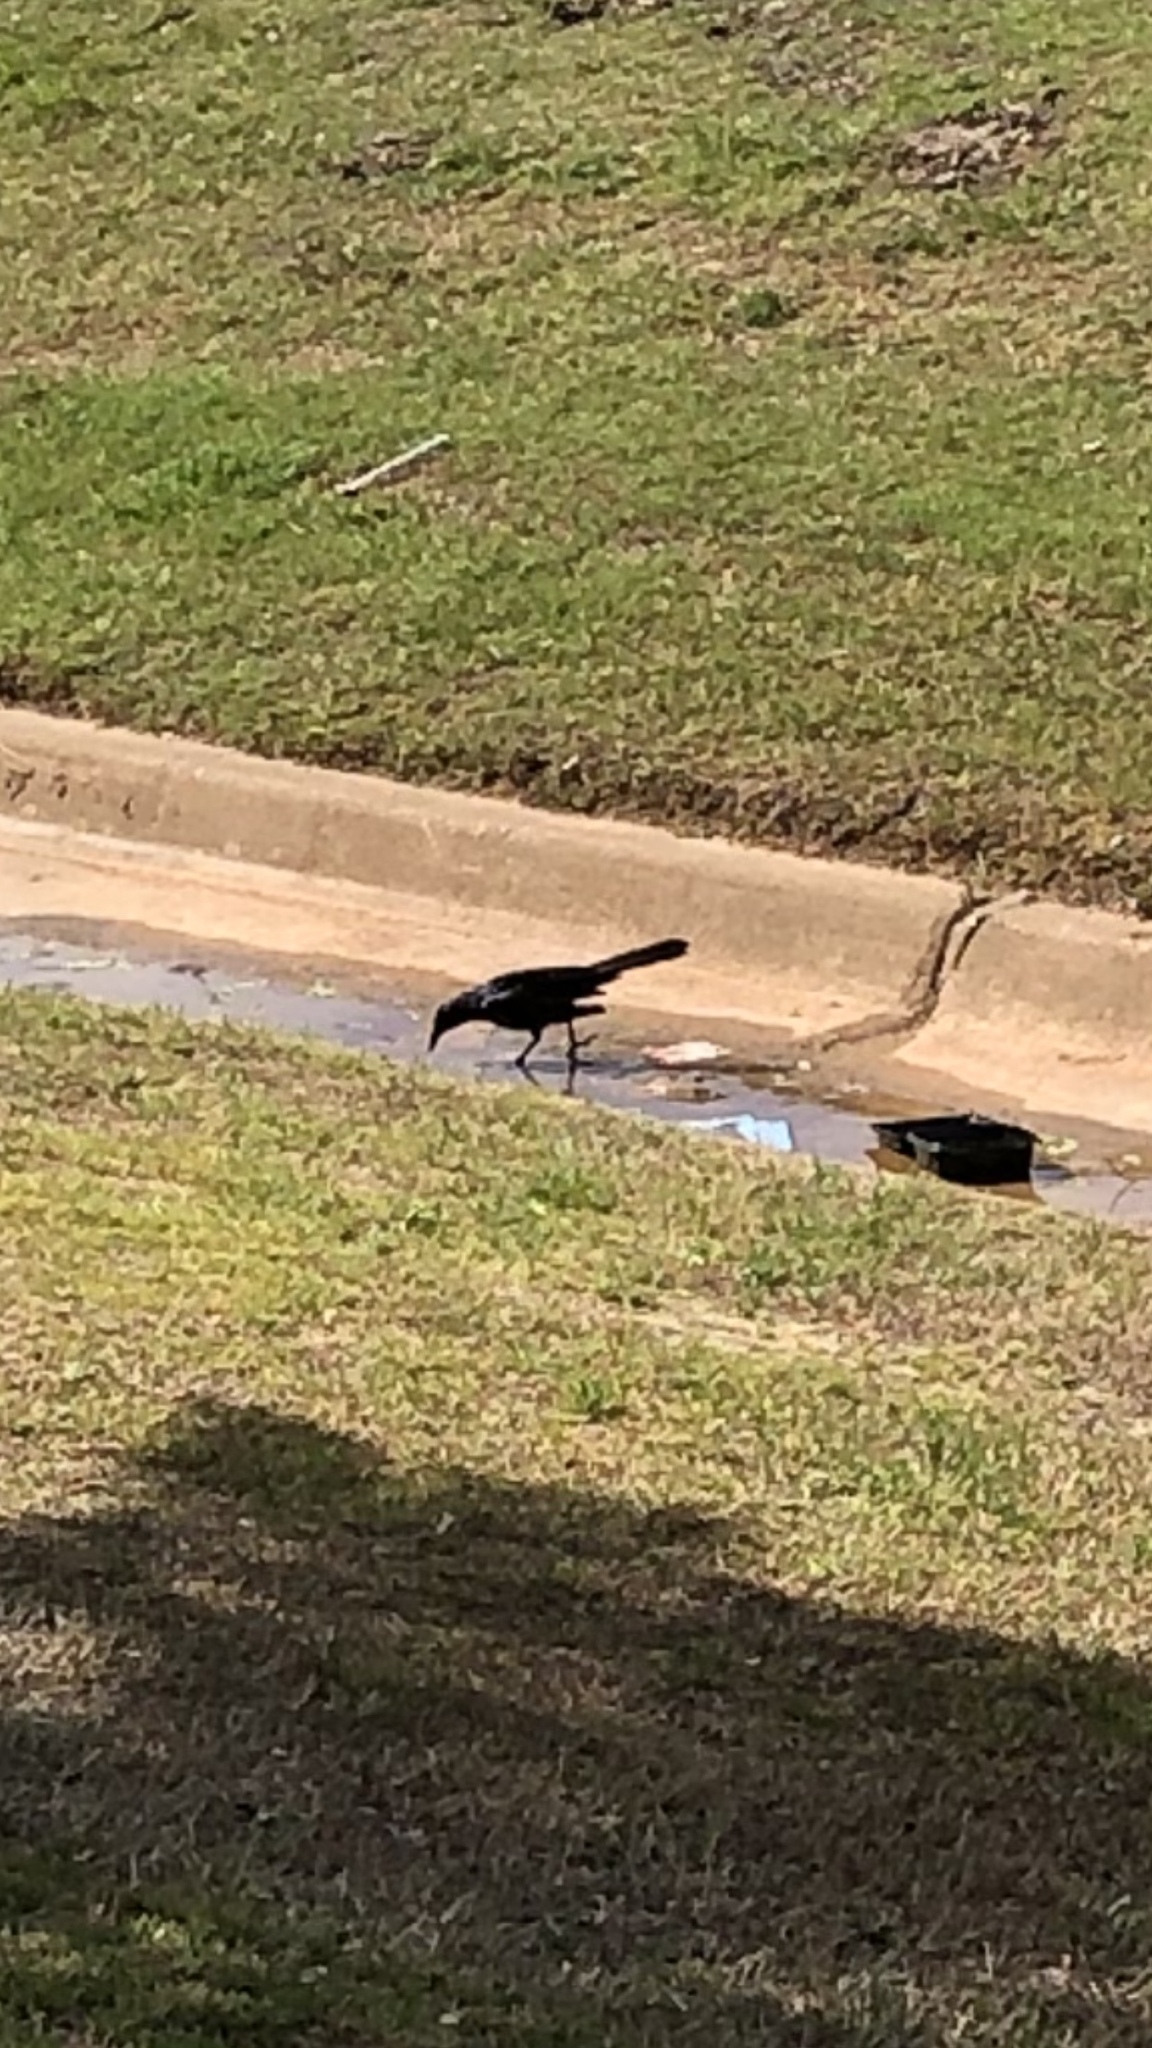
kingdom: Animalia
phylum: Chordata
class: Aves
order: Passeriformes
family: Icteridae
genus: Quiscalus
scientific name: Quiscalus mexicanus
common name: Great-tailed grackle
